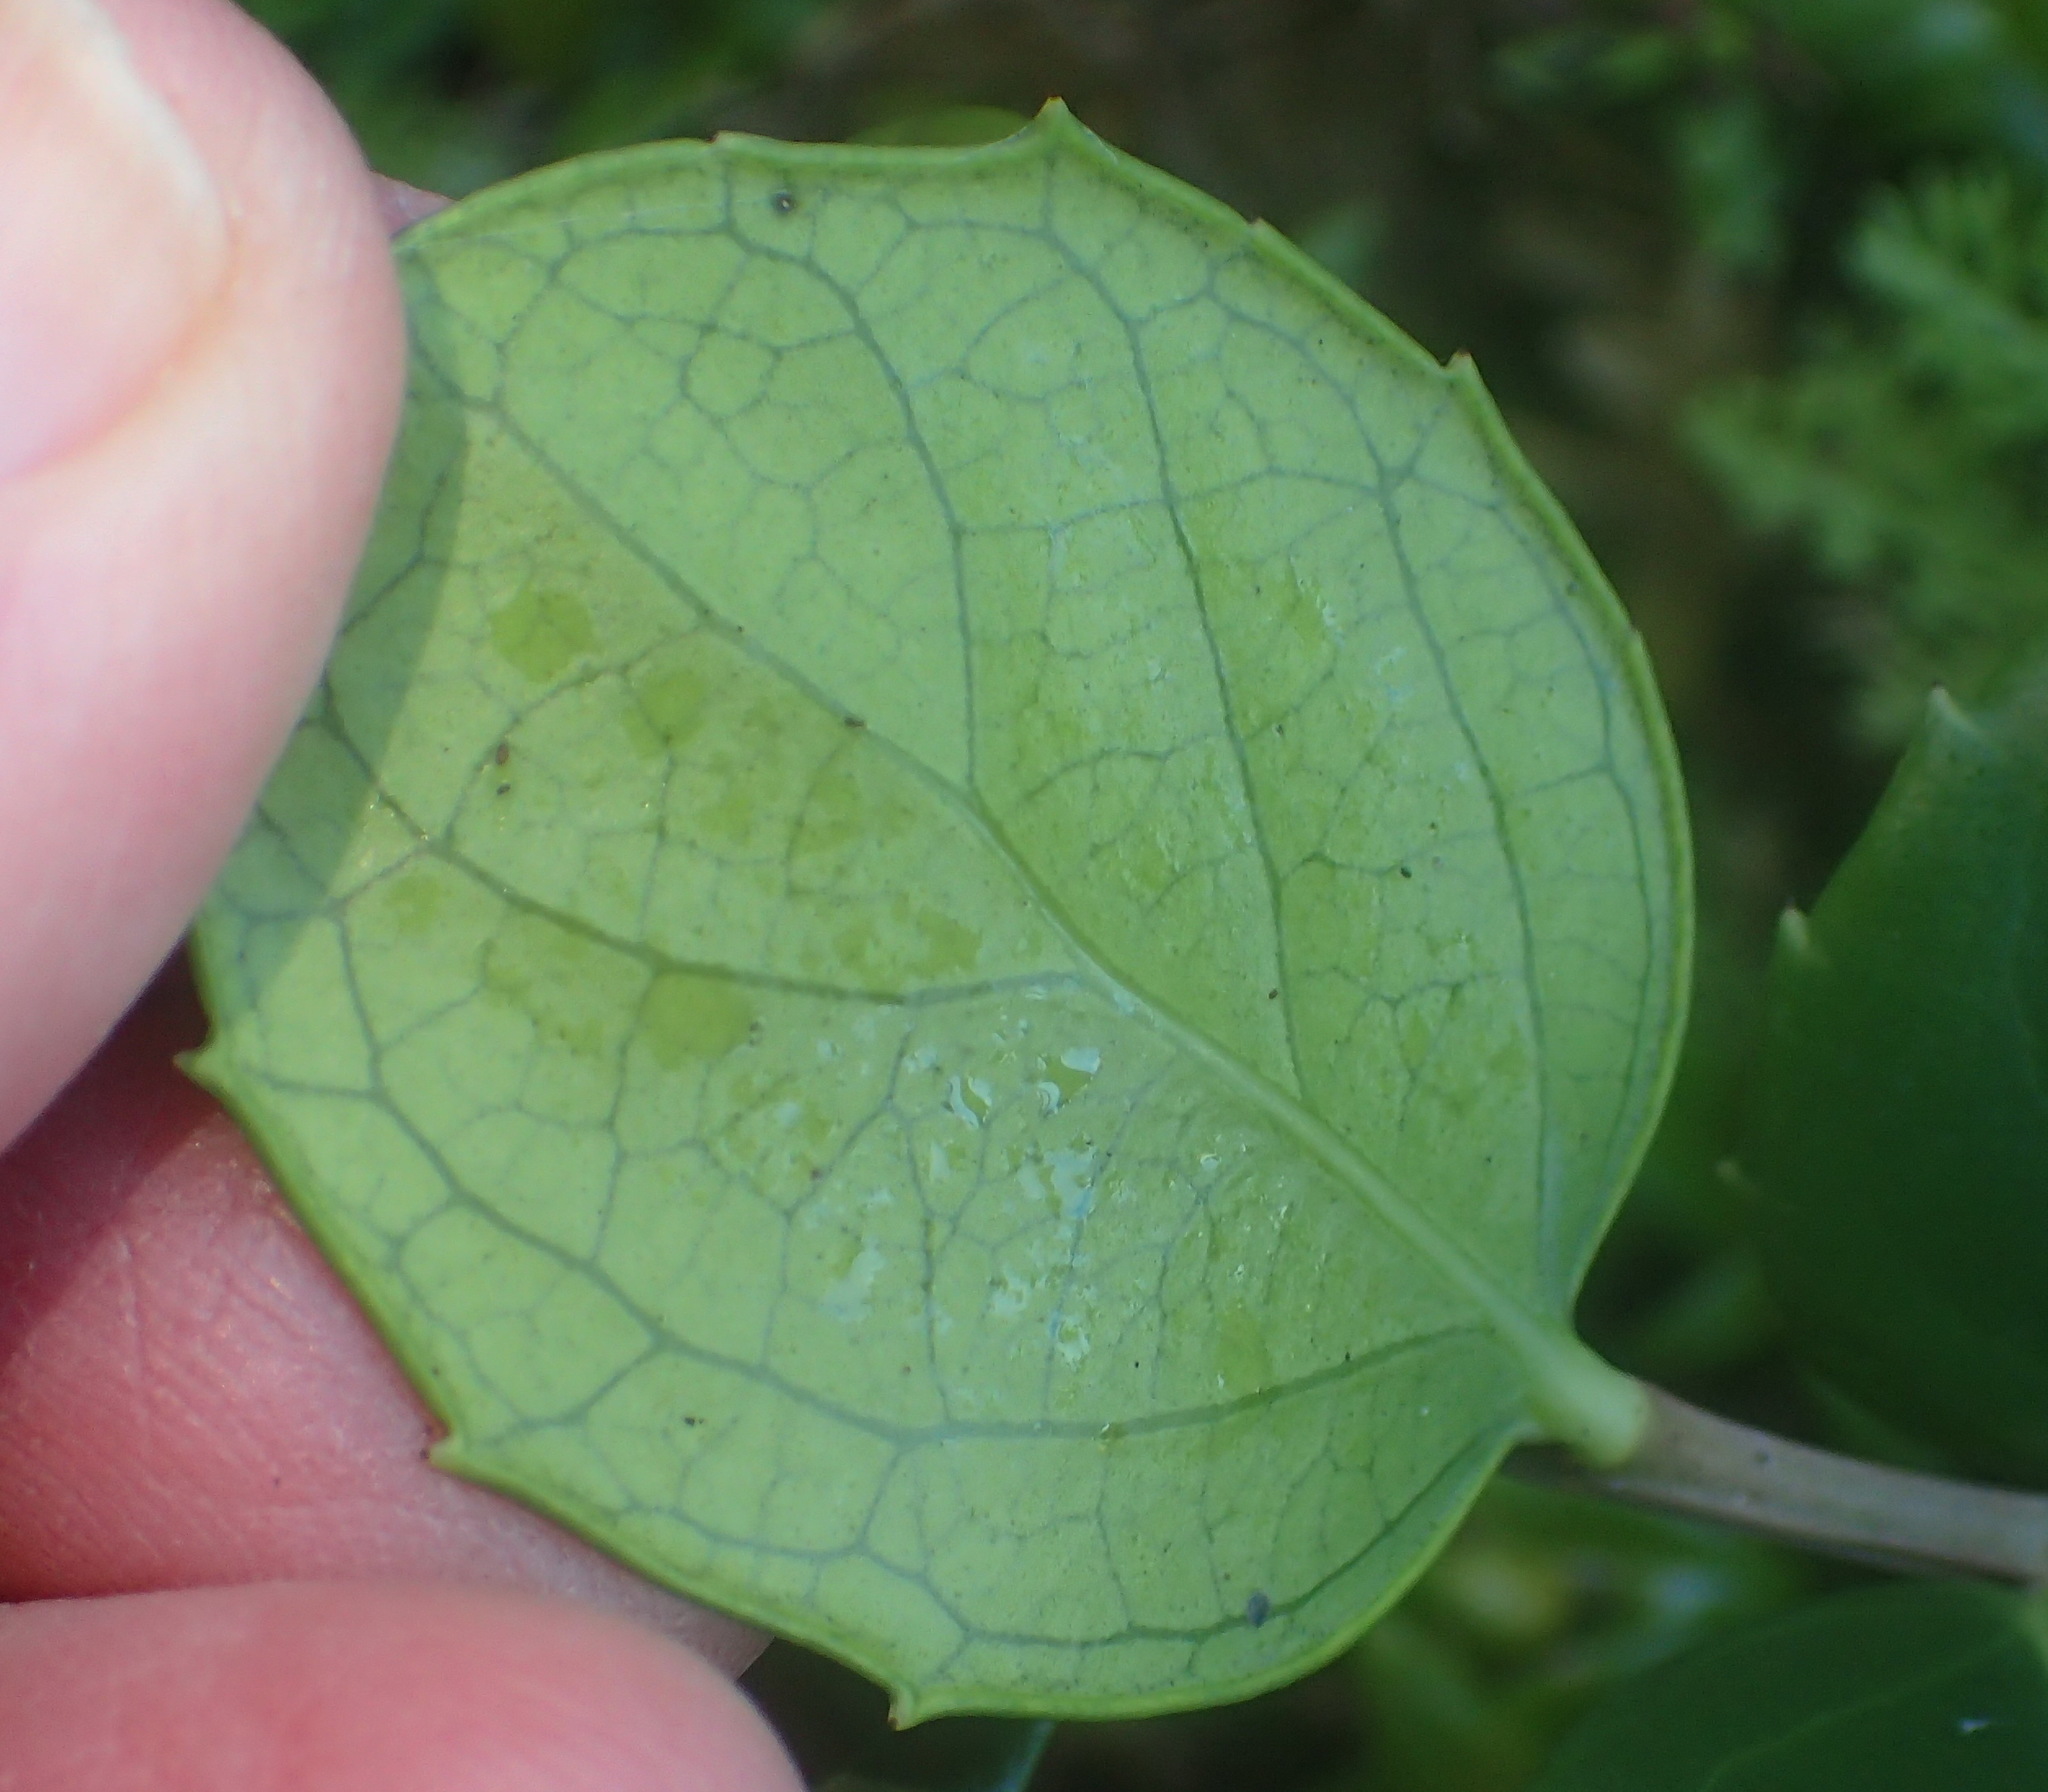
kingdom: Plantae
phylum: Tracheophyta
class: Magnoliopsida
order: Celastrales
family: Celastraceae
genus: Gymnosporia
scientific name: Gymnosporia procumbens
